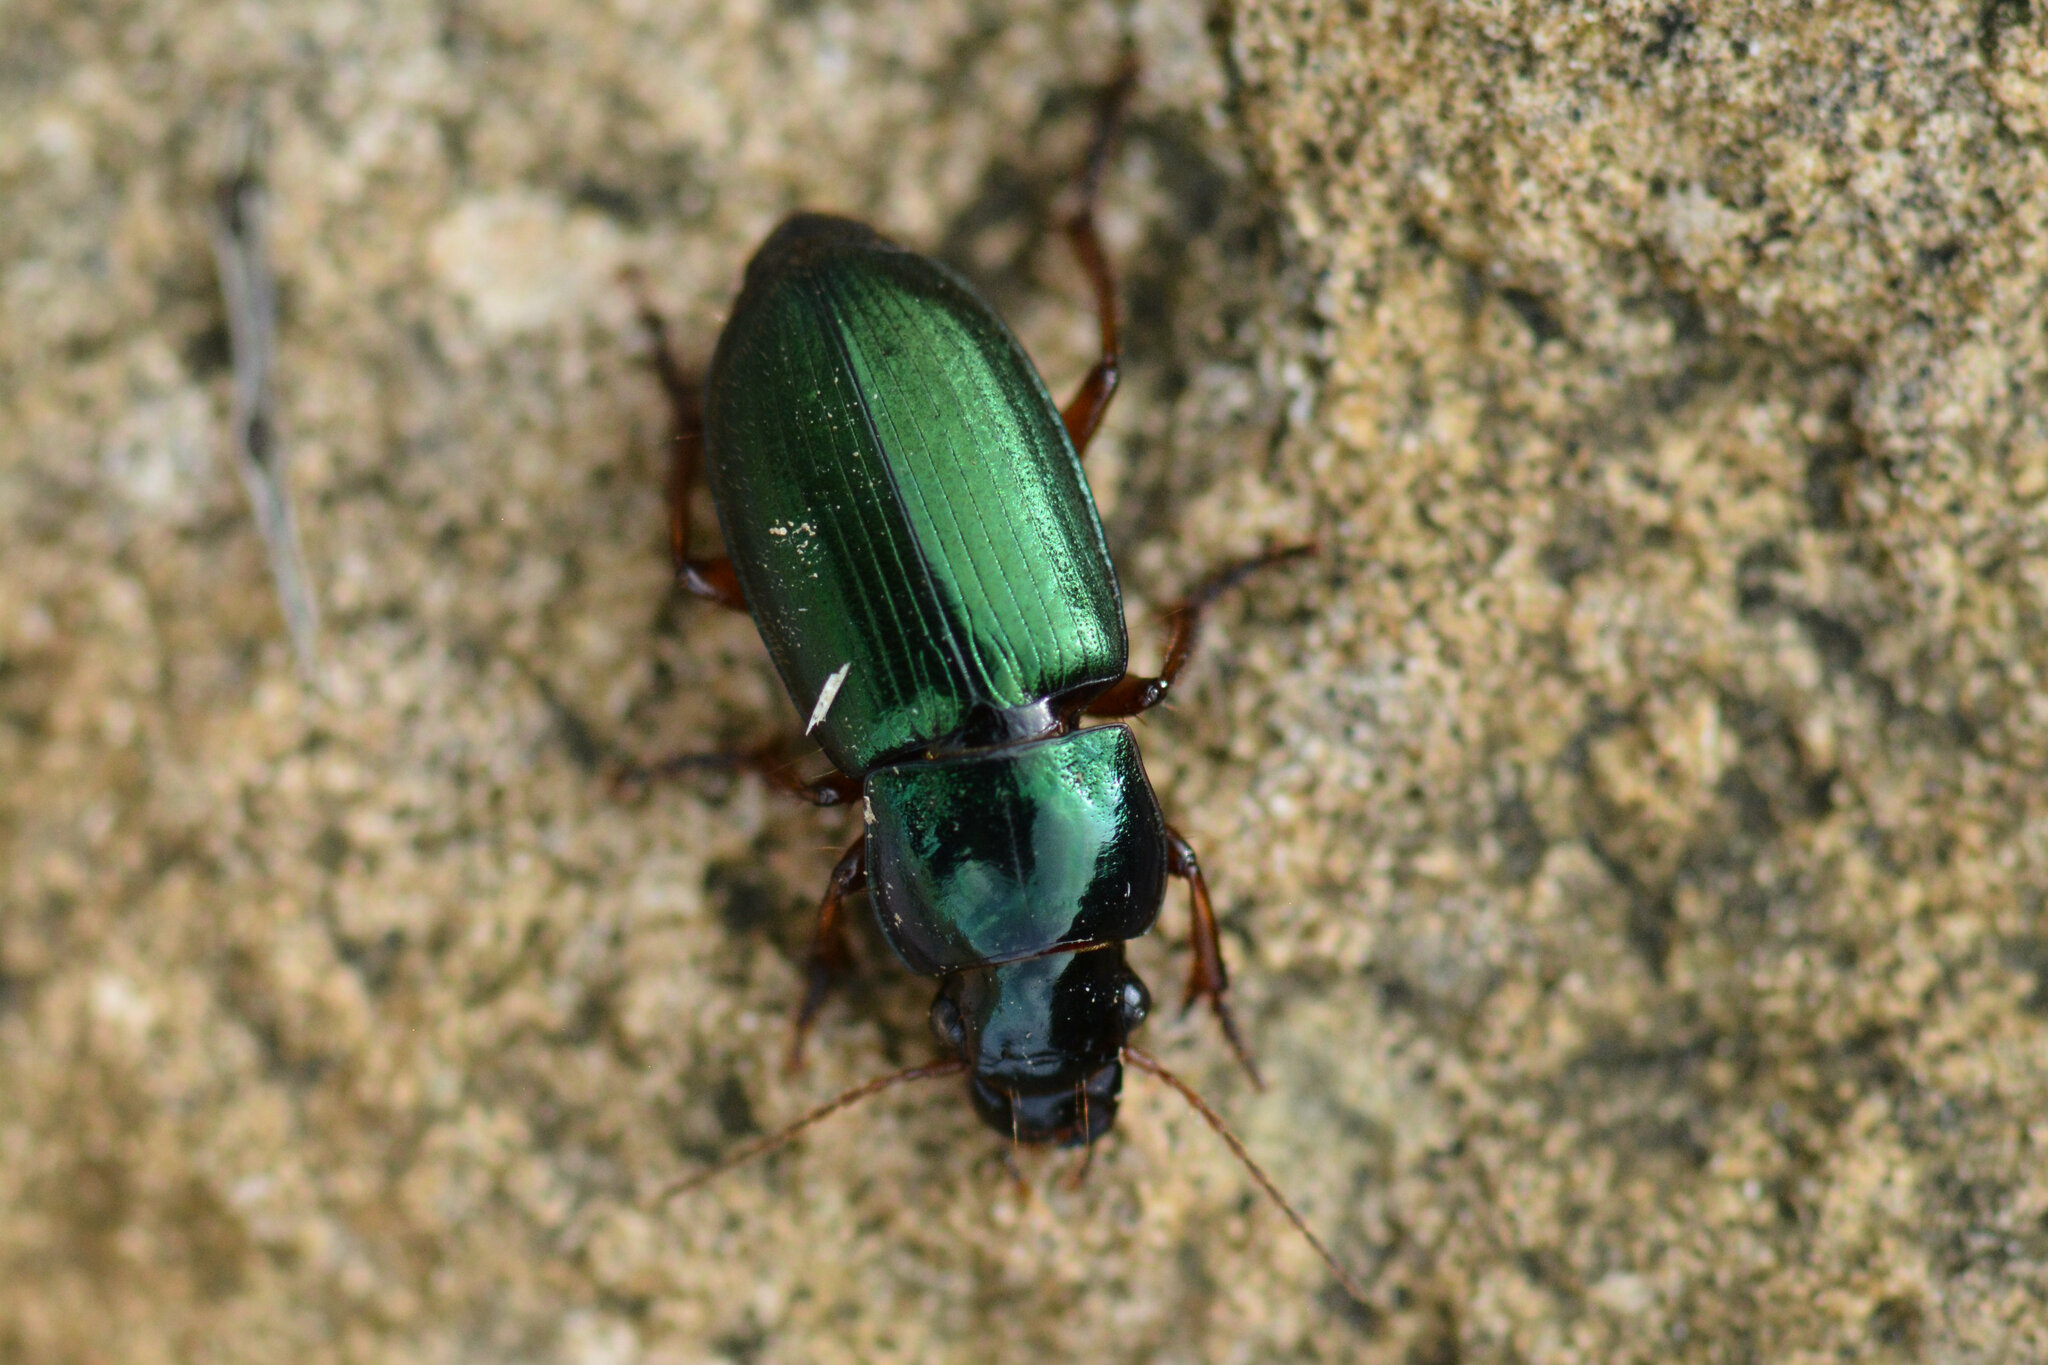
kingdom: Animalia
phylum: Arthropoda
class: Insecta
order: Coleoptera
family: Carabidae
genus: Harpalus
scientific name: Harpalus affinis
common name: Polychrome harp ground beetle
